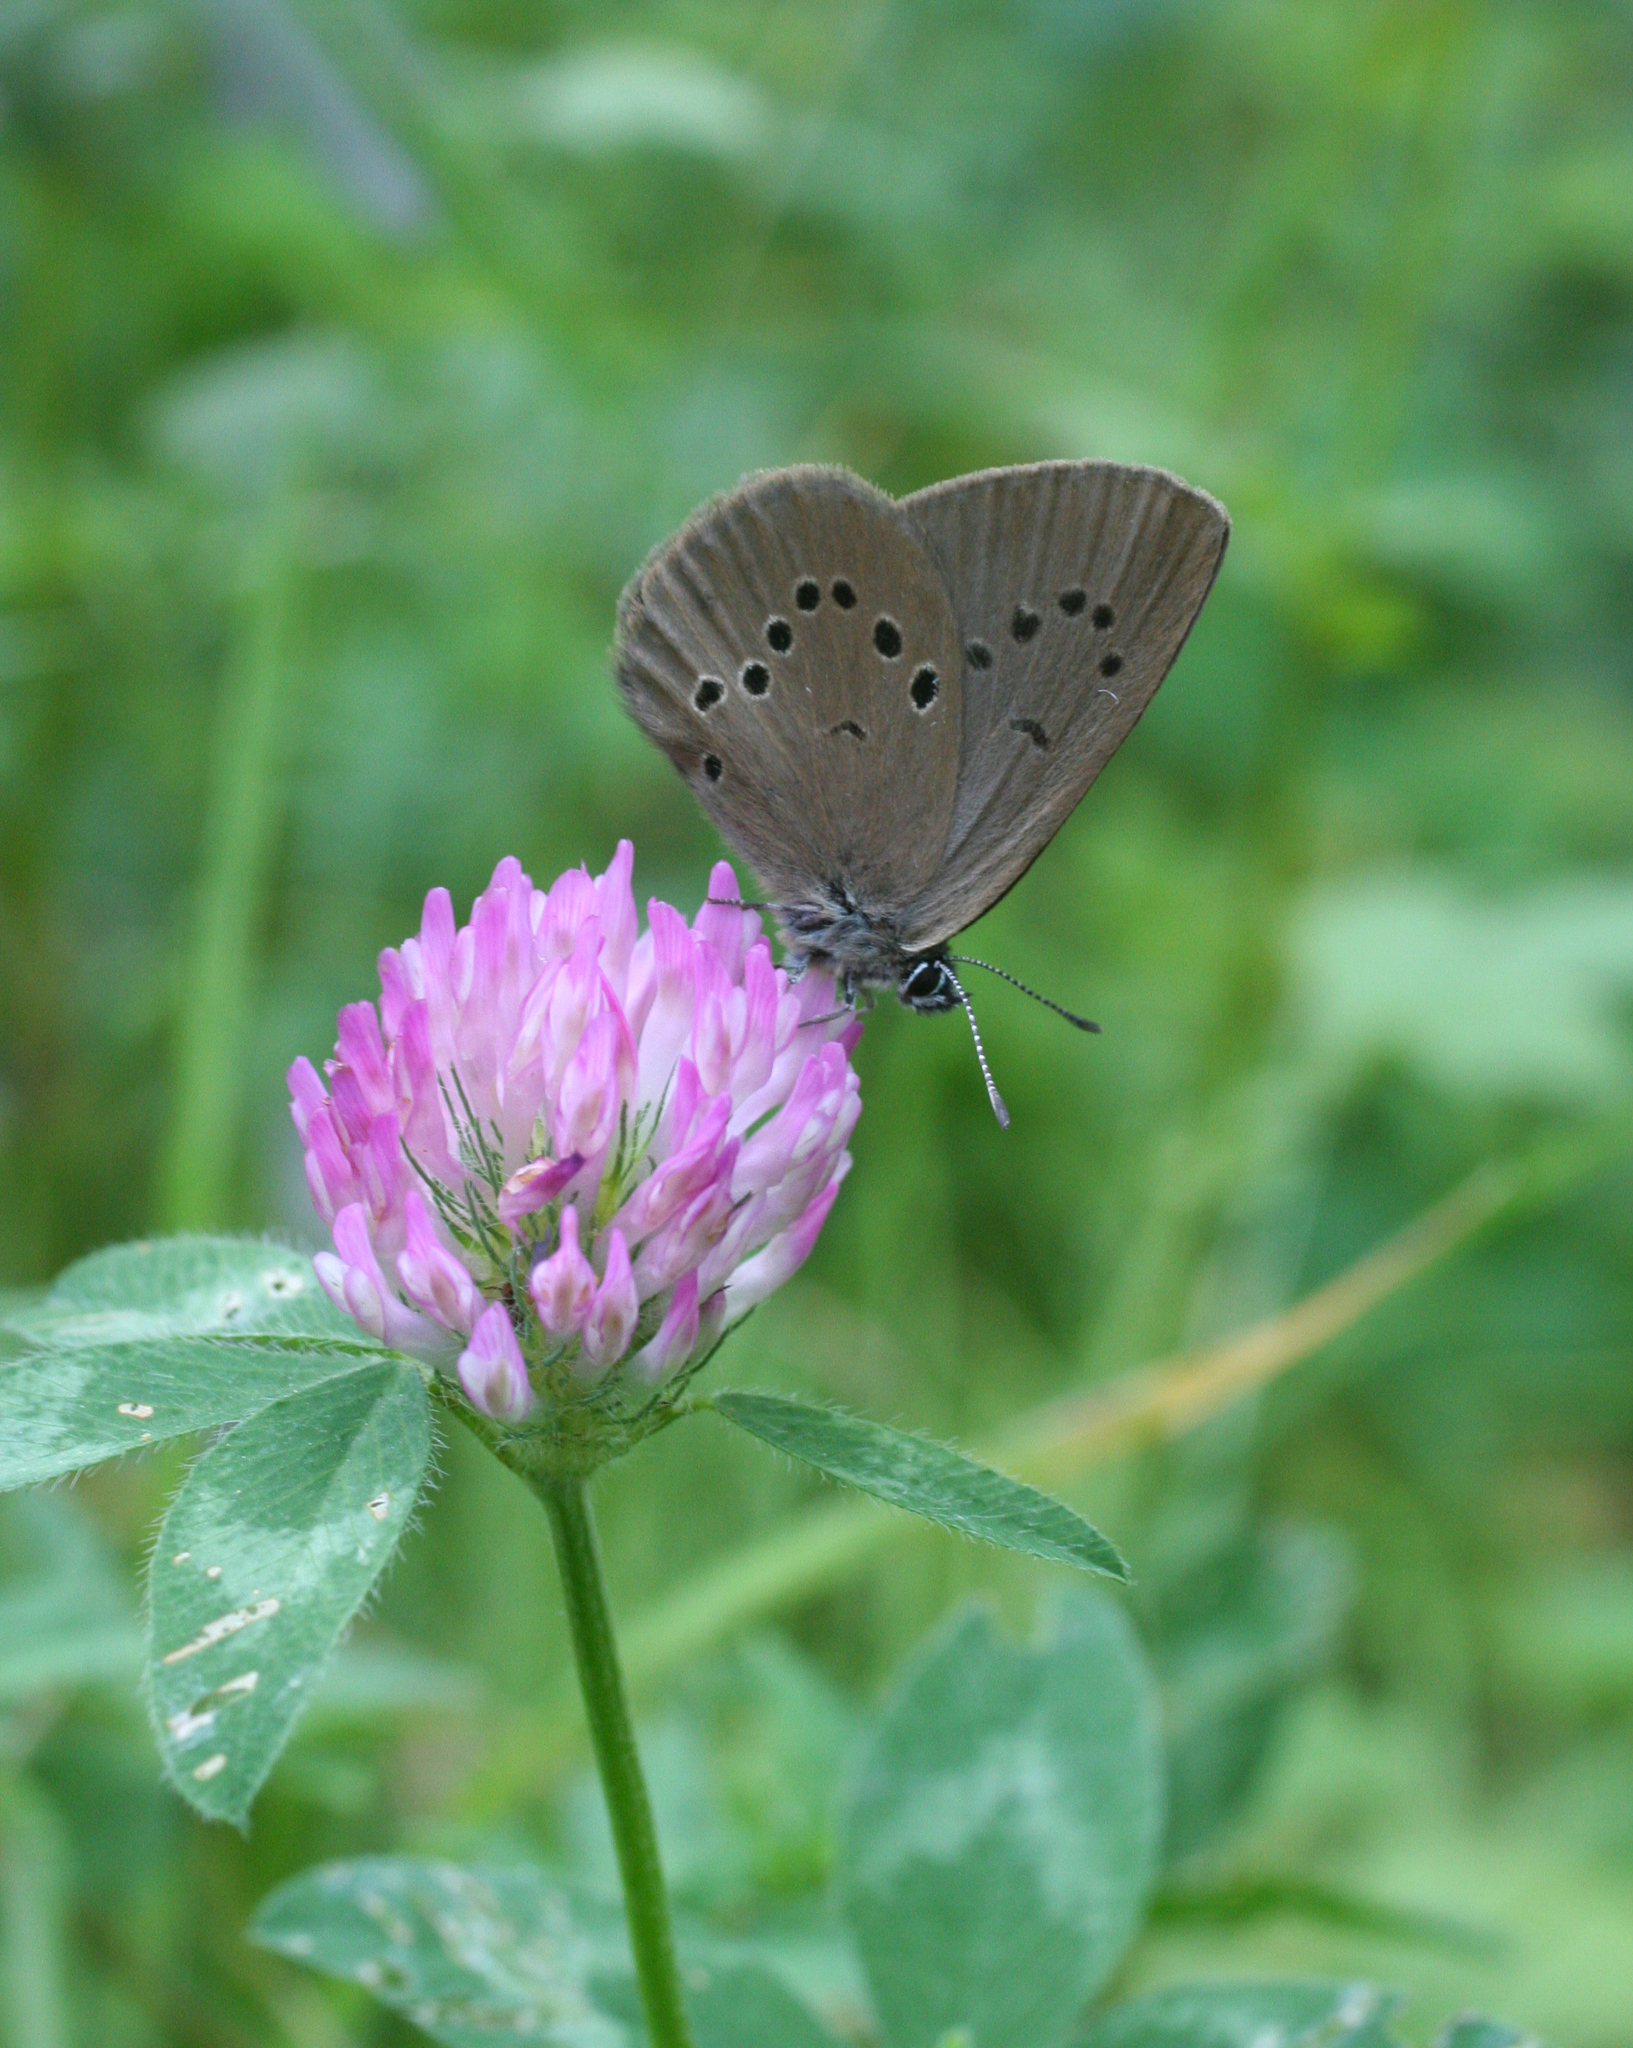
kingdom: Plantae
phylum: Tracheophyta
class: Magnoliopsida
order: Fabales
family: Fabaceae
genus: Trifolium
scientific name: Trifolium pratense
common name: Red clover
